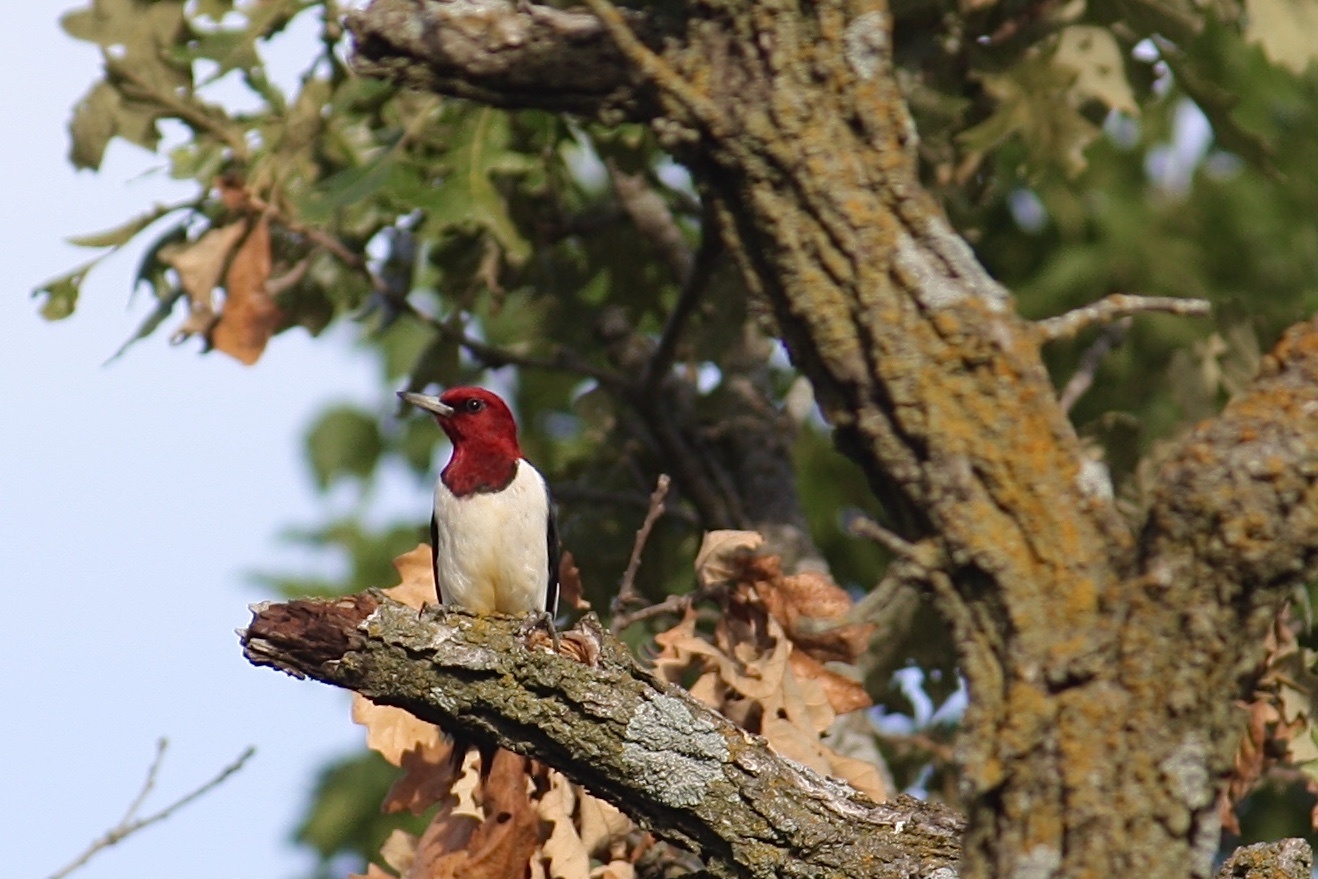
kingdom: Animalia
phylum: Chordata
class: Aves
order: Piciformes
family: Picidae
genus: Melanerpes
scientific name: Melanerpes erythrocephalus
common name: Red-headed woodpecker
